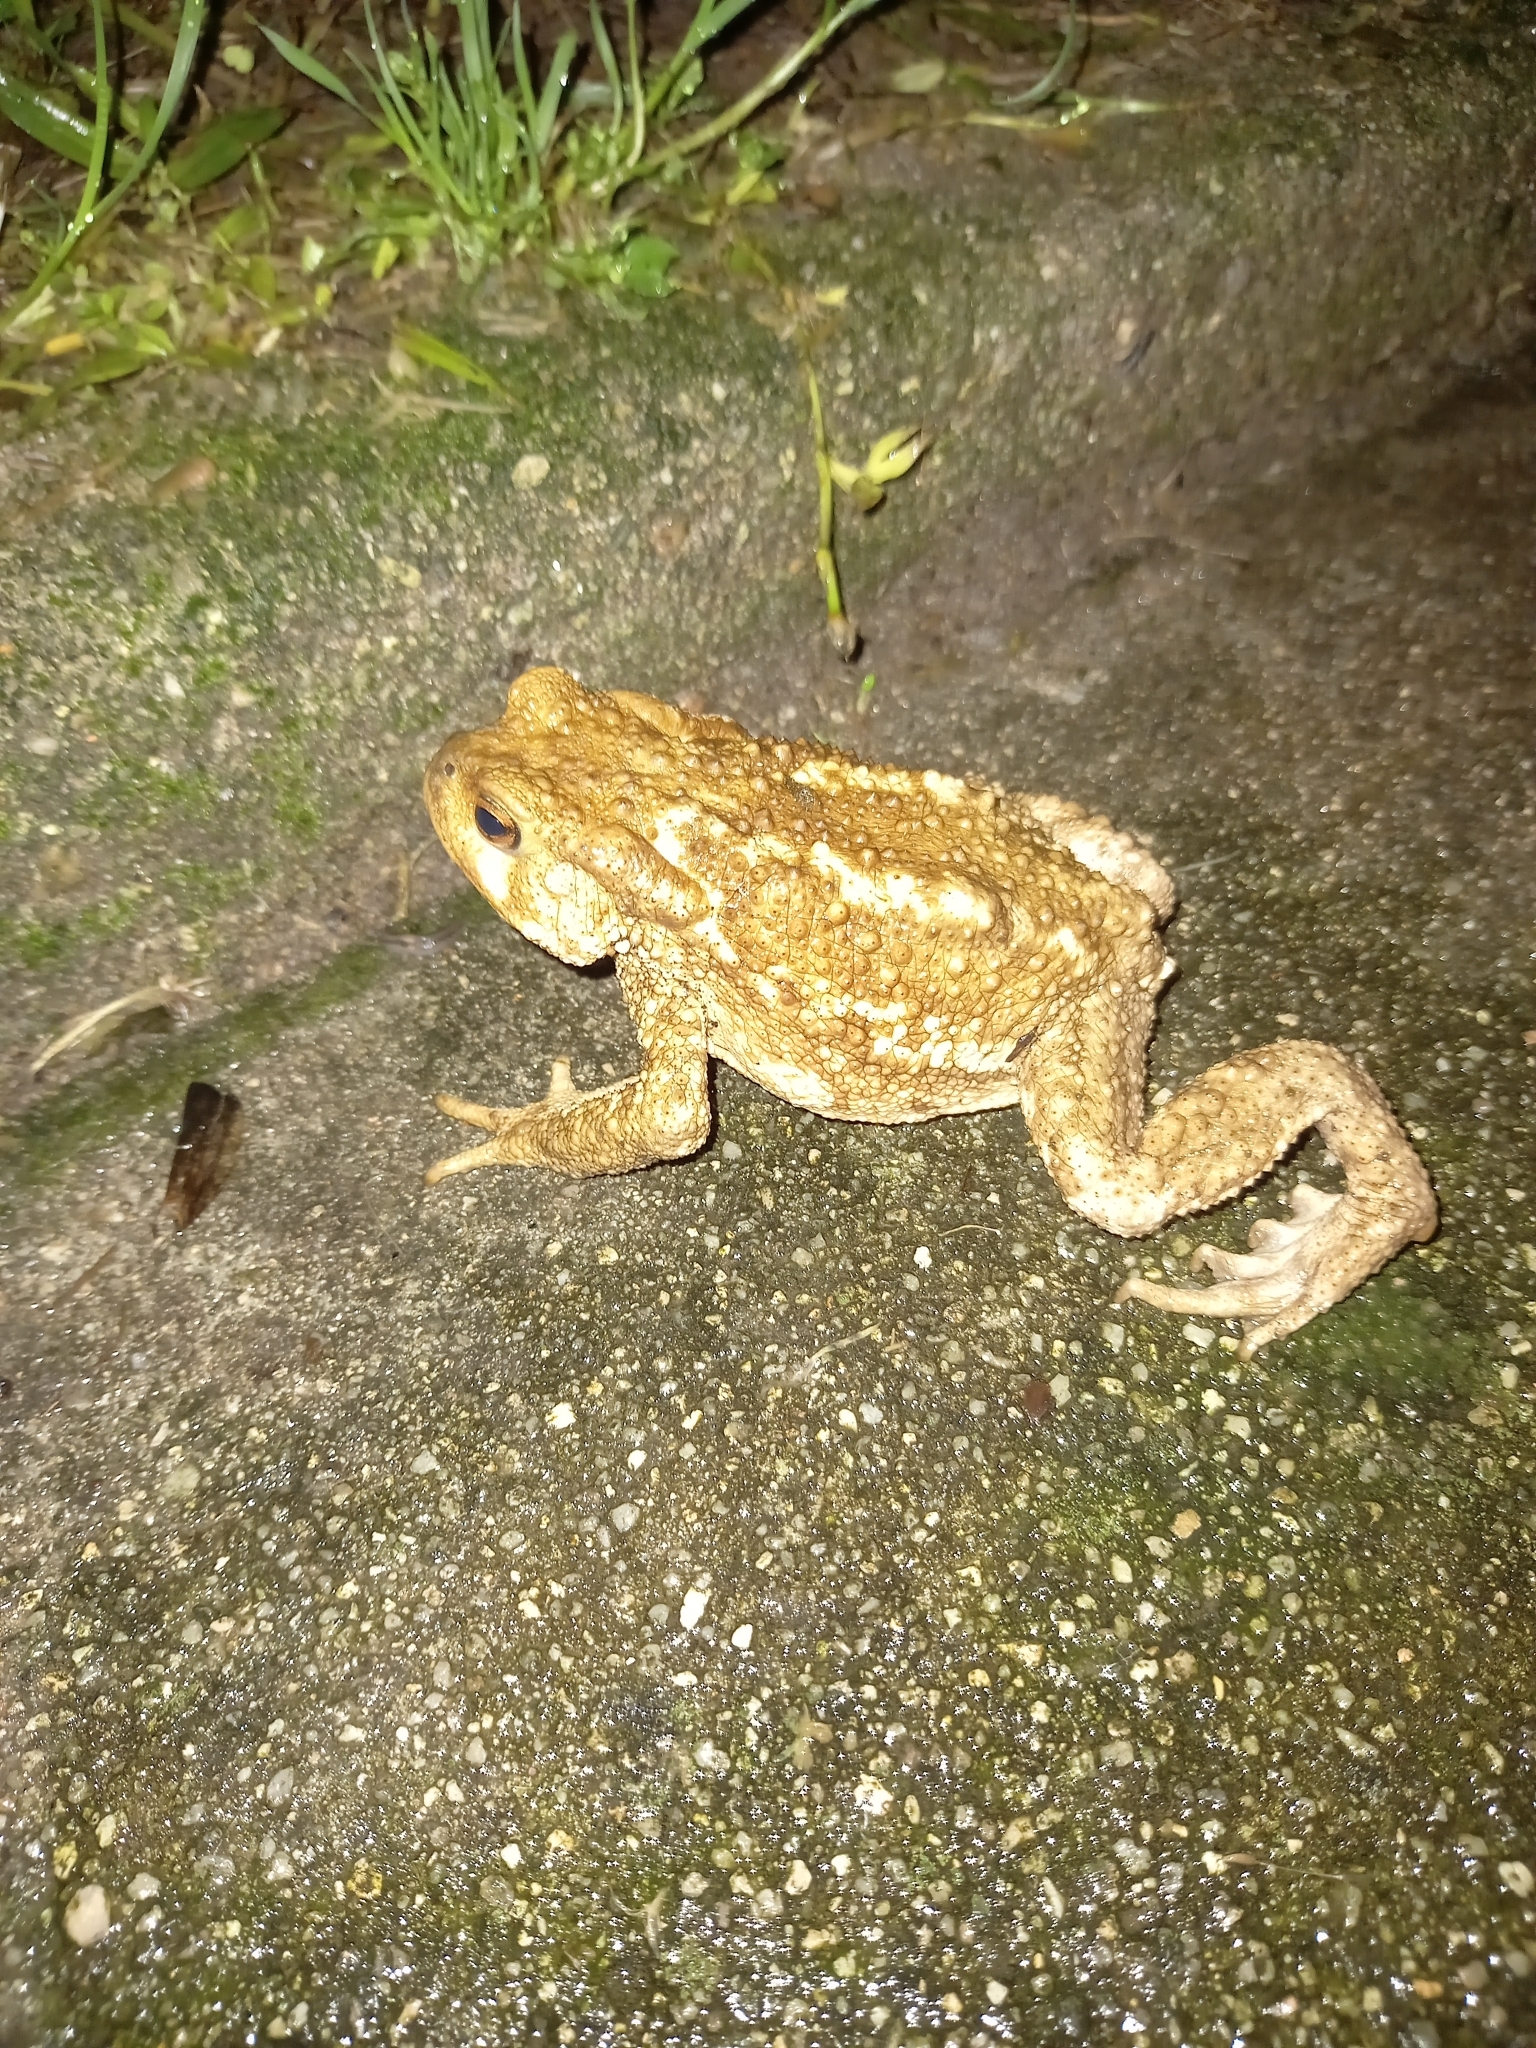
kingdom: Animalia
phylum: Chordata
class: Amphibia
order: Anura
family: Bufonidae
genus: Bufo
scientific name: Bufo spinosus
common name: Western common toad
